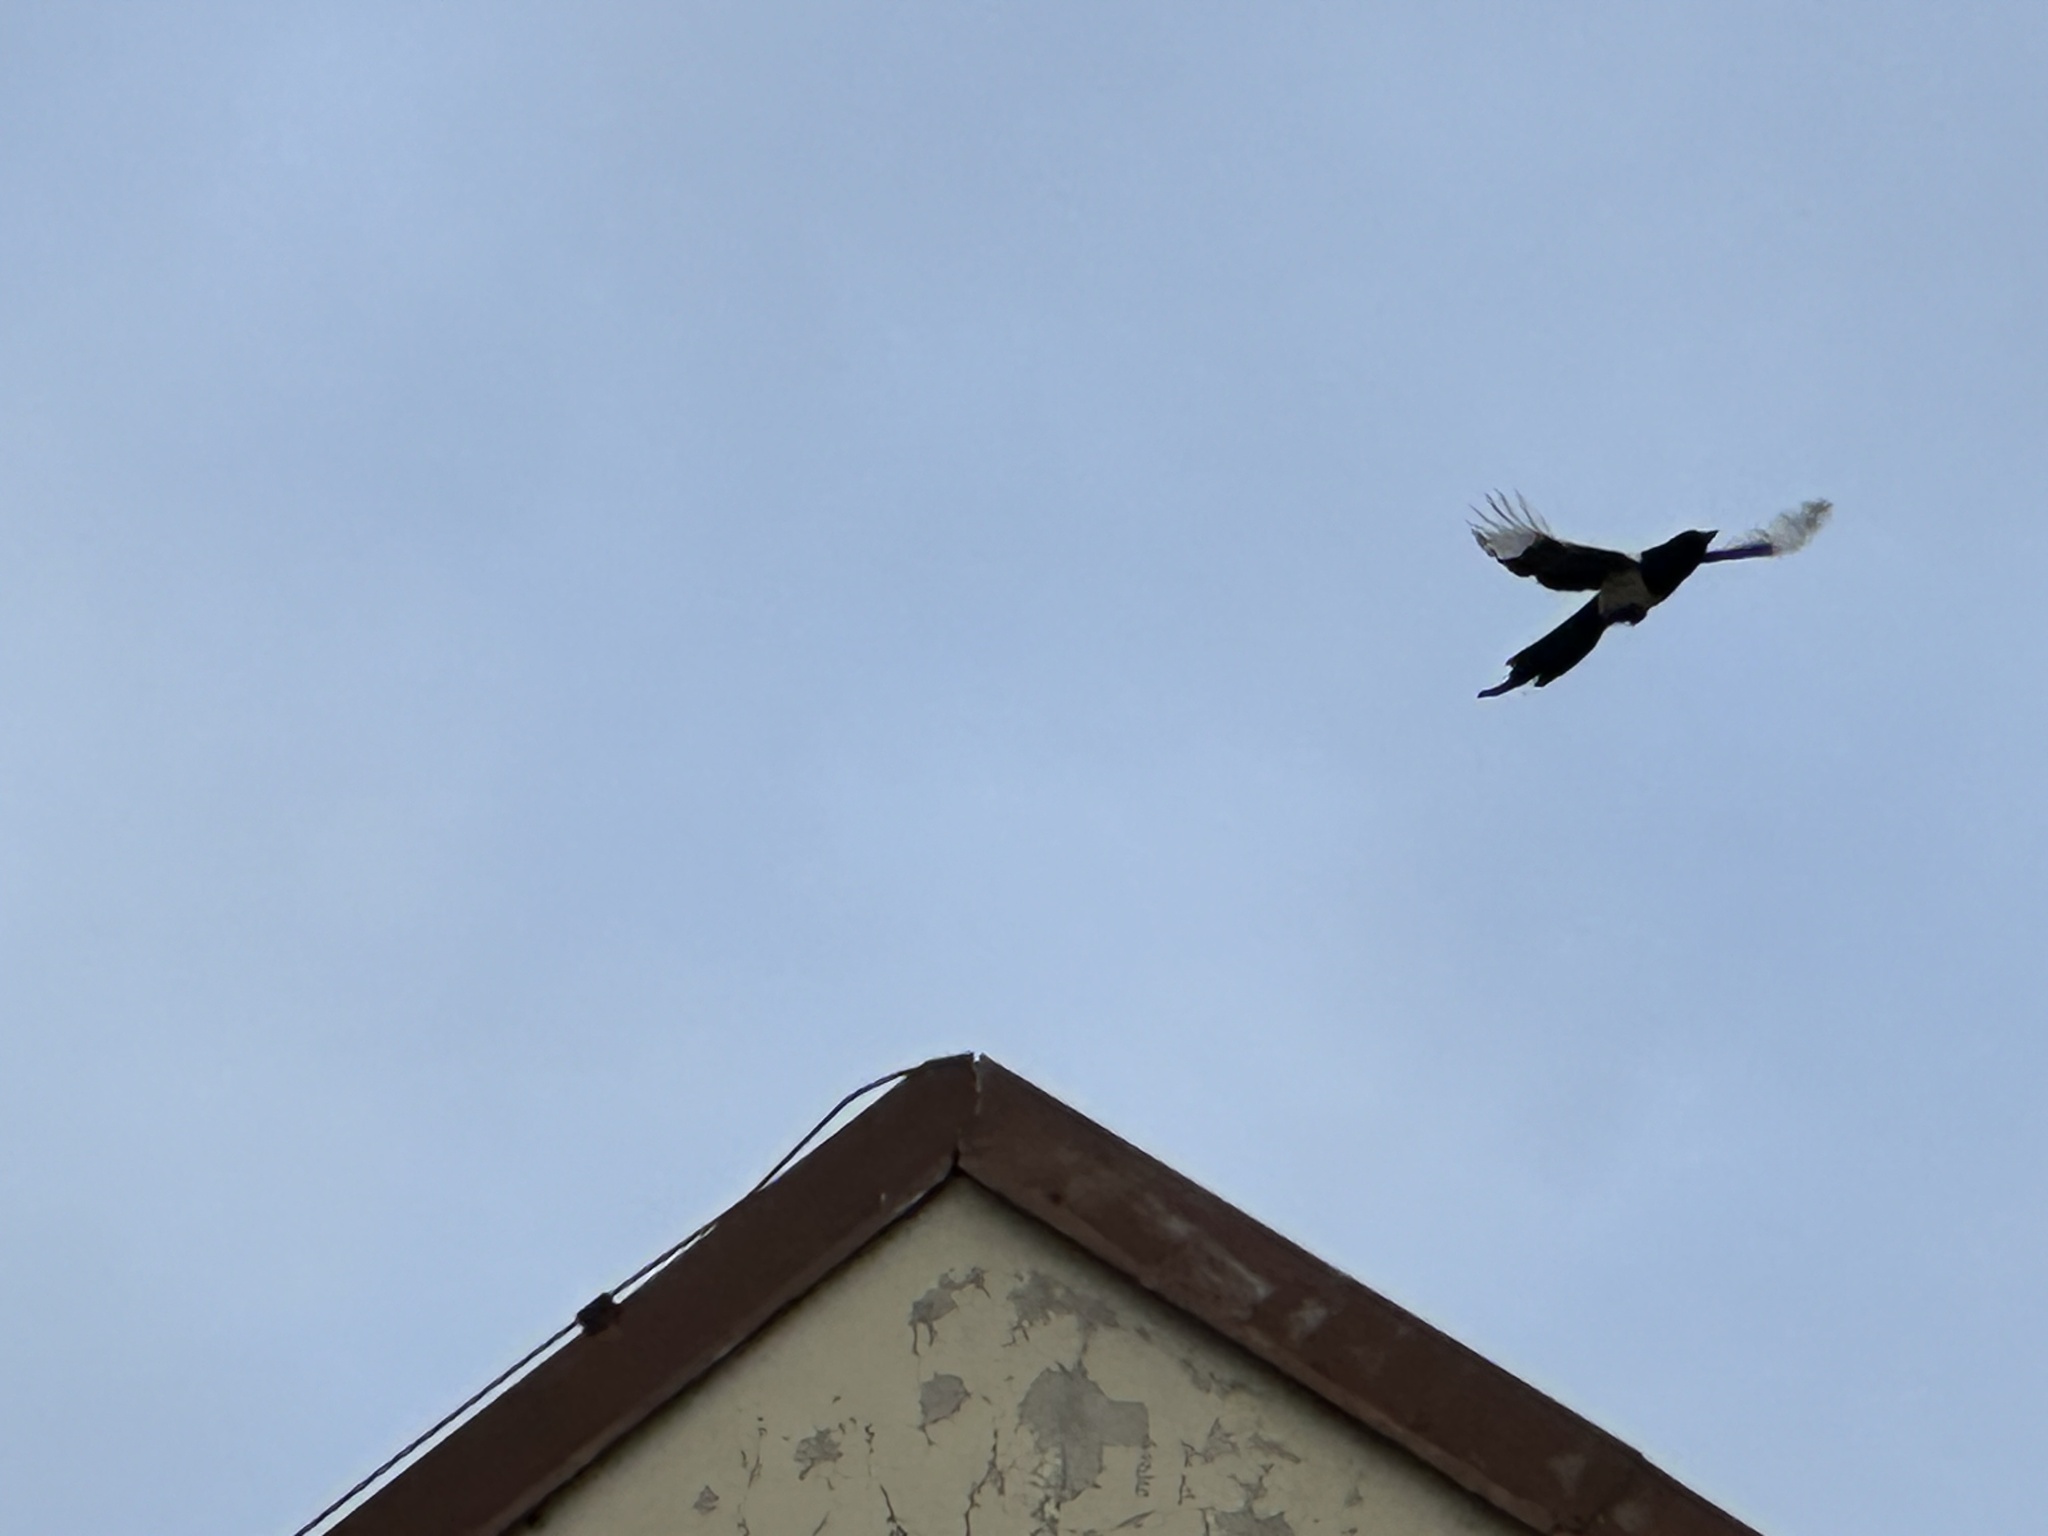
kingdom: Animalia
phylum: Chordata
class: Aves
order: Passeriformes
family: Corvidae
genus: Pica
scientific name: Pica pica
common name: Eurasian magpie
